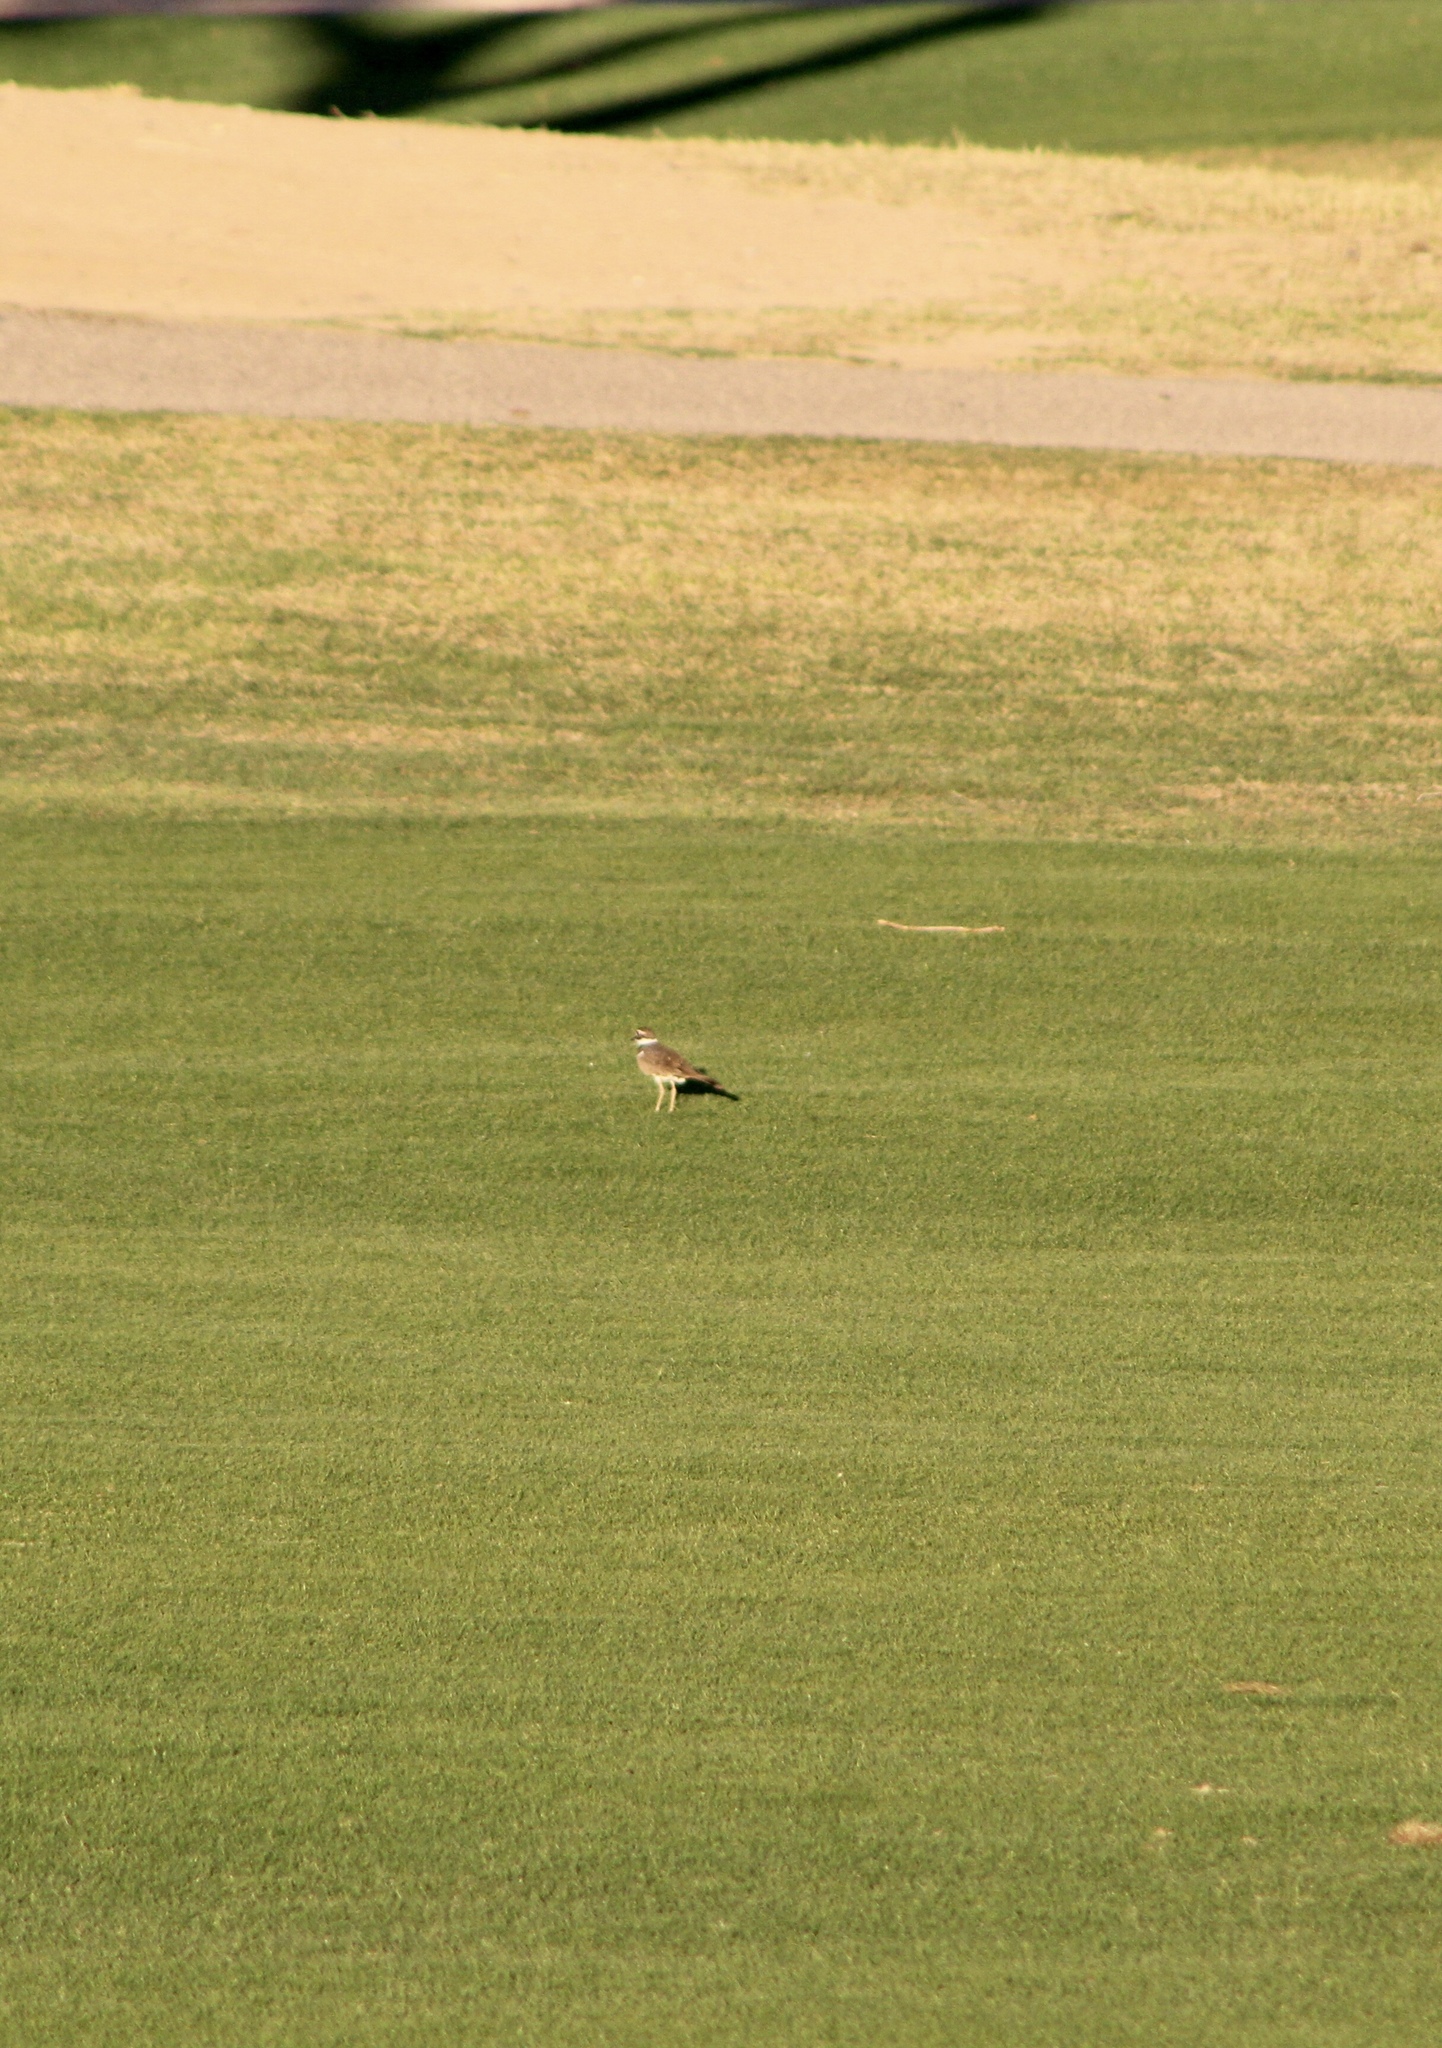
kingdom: Animalia
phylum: Chordata
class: Aves
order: Charadriiformes
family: Charadriidae
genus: Charadrius
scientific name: Charadrius vociferus
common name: Killdeer
